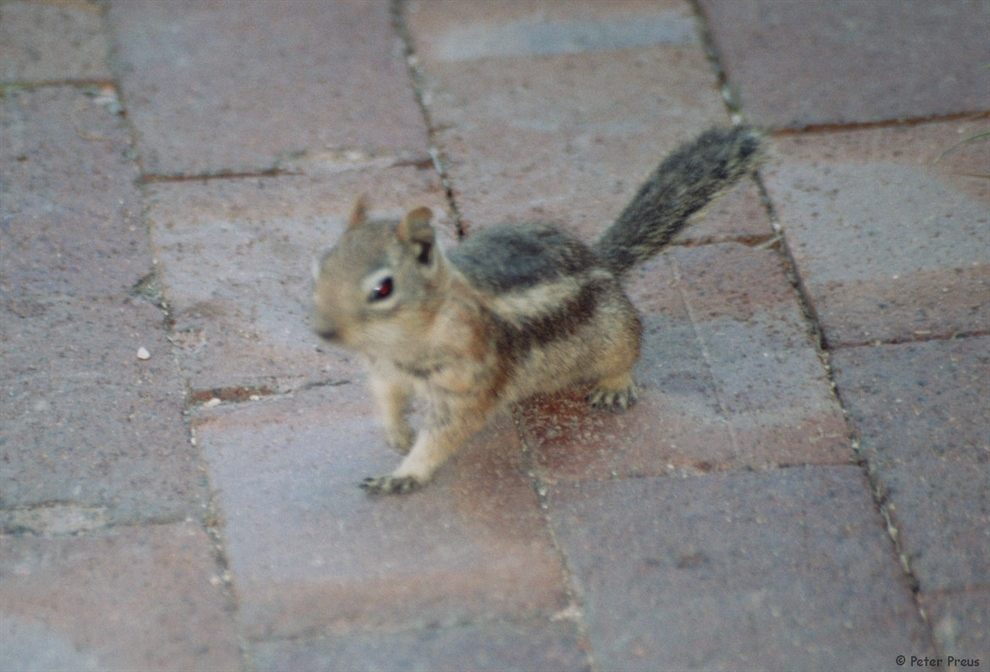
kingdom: Animalia
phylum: Chordata
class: Mammalia
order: Rodentia
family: Sciuridae
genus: Callospermophilus
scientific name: Callospermophilus lateralis
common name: Golden-mantled ground squirrel
